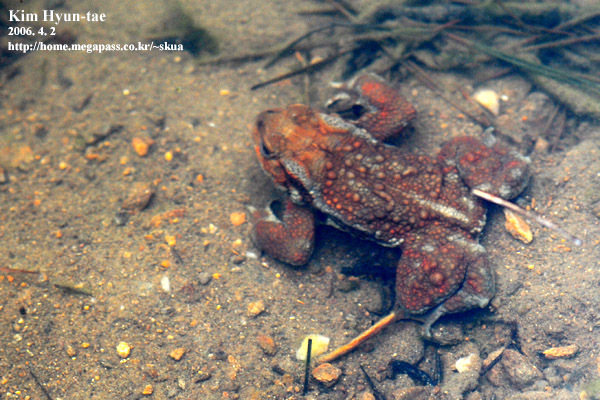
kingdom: Animalia
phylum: Chordata
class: Amphibia
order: Anura
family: Bufonidae
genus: Bufo
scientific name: Bufo gargarizans
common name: Asiatic toad
